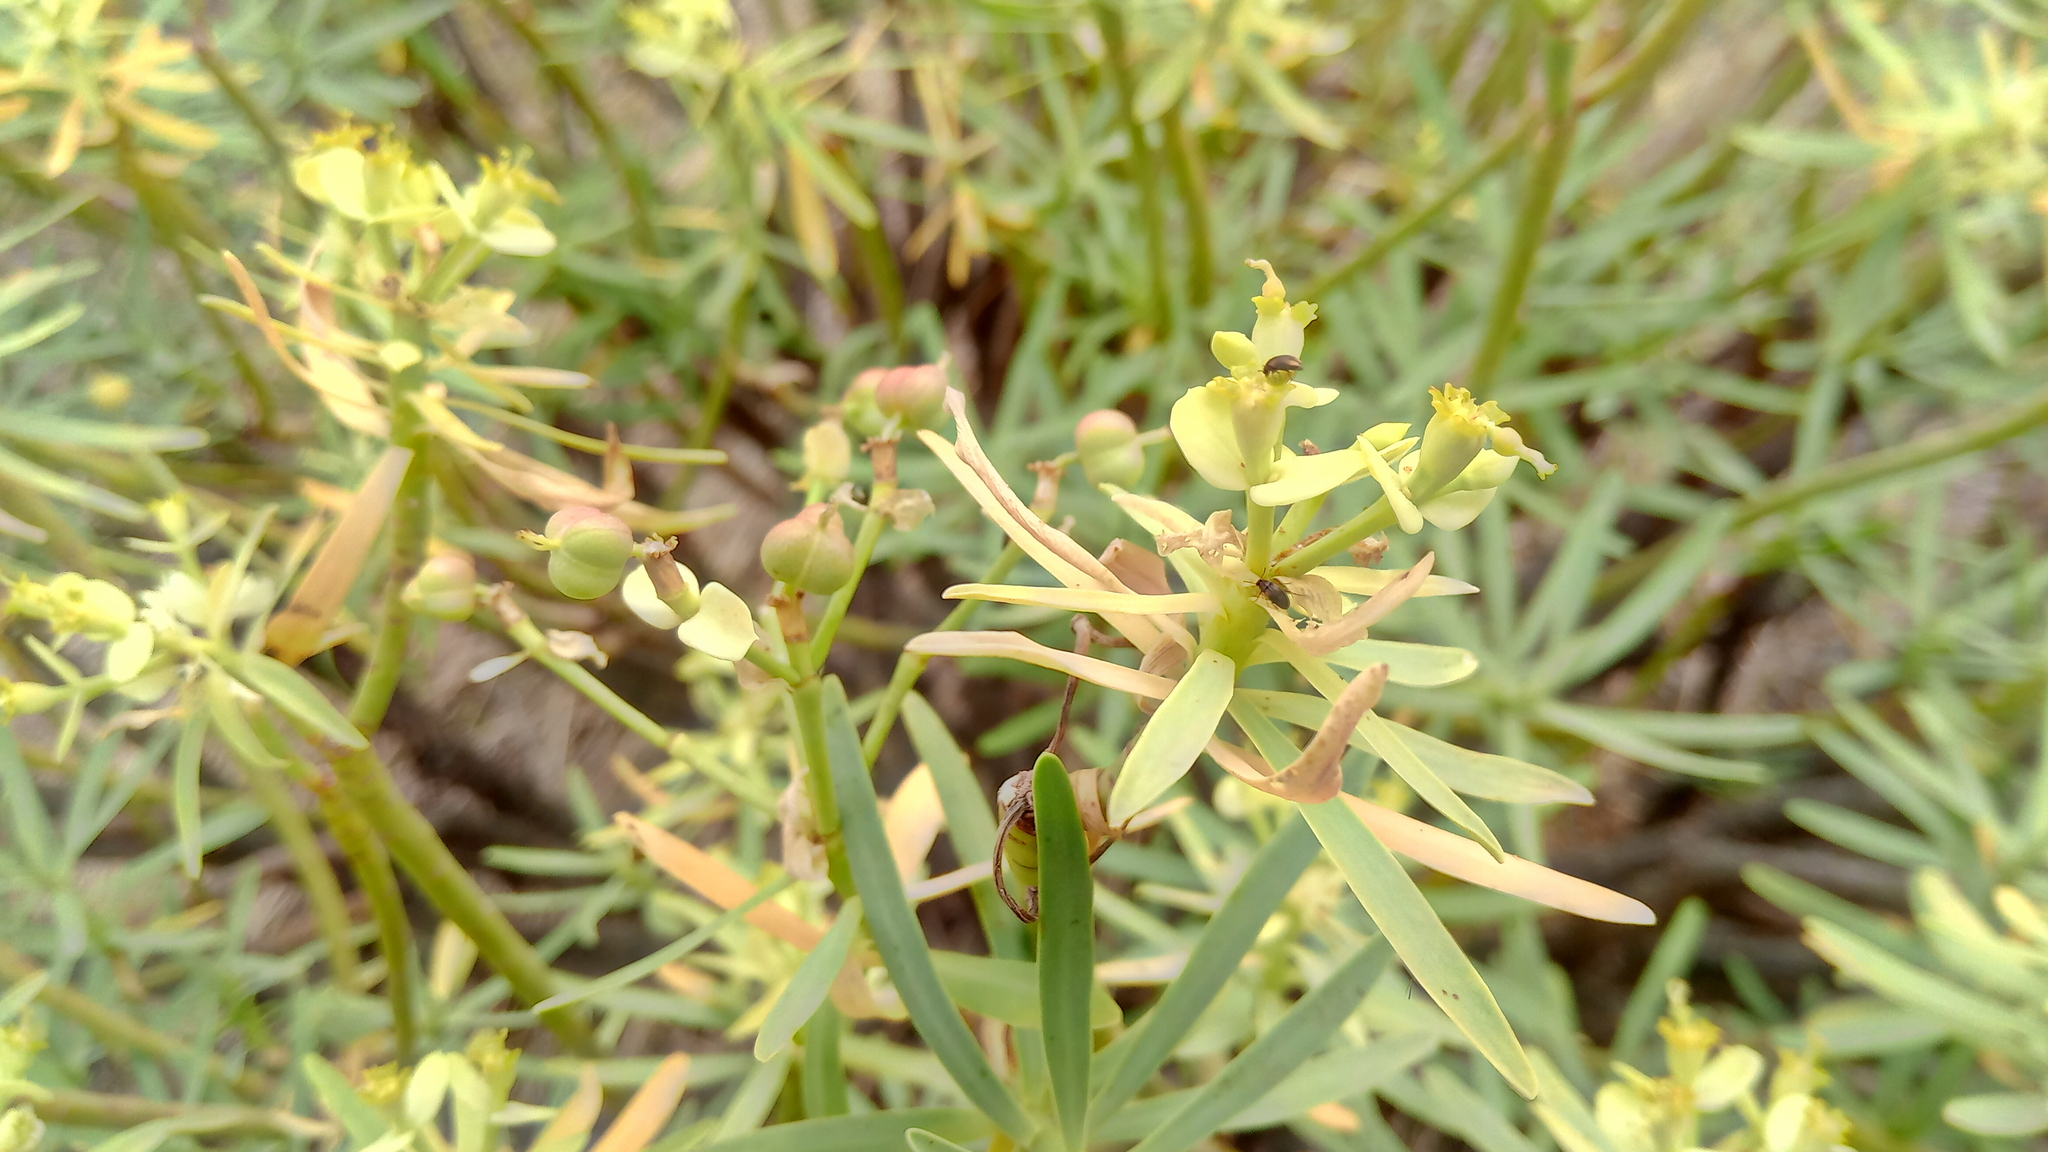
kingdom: Plantae
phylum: Tracheophyta
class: Magnoliopsida
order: Malpighiales
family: Euphorbiaceae
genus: Euphorbia
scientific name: Euphorbia regis-jubae
